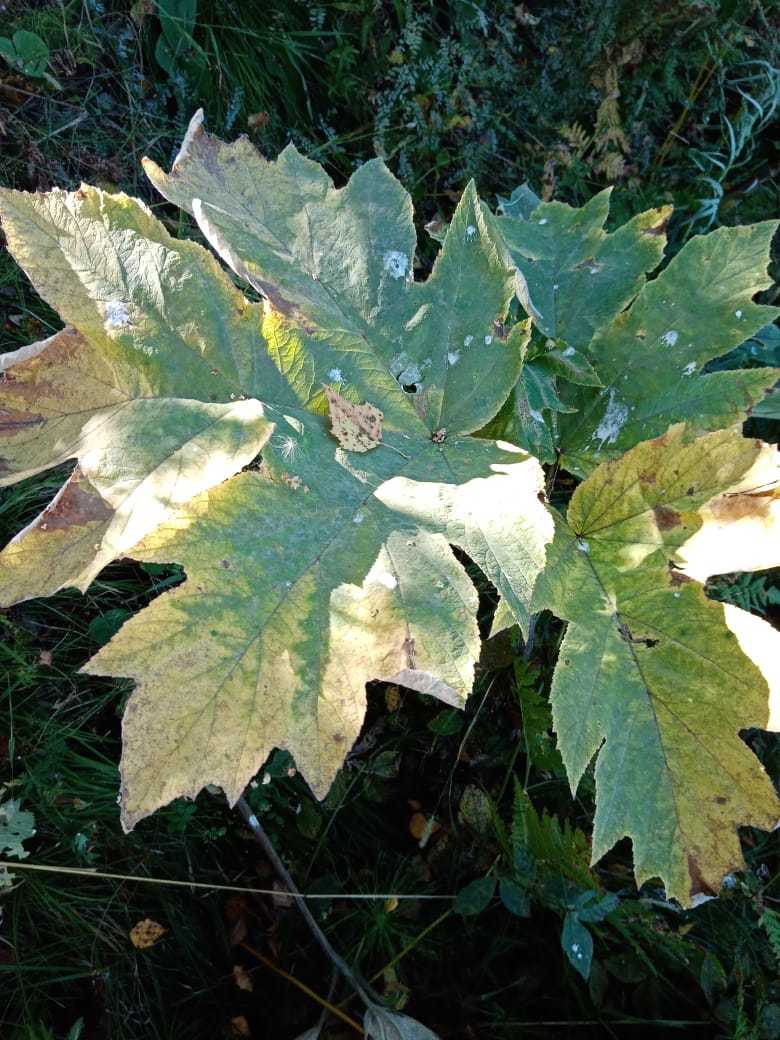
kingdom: Plantae
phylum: Tracheophyta
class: Magnoliopsida
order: Apiales
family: Apiaceae
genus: Heracleum
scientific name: Heracleum dissectum
